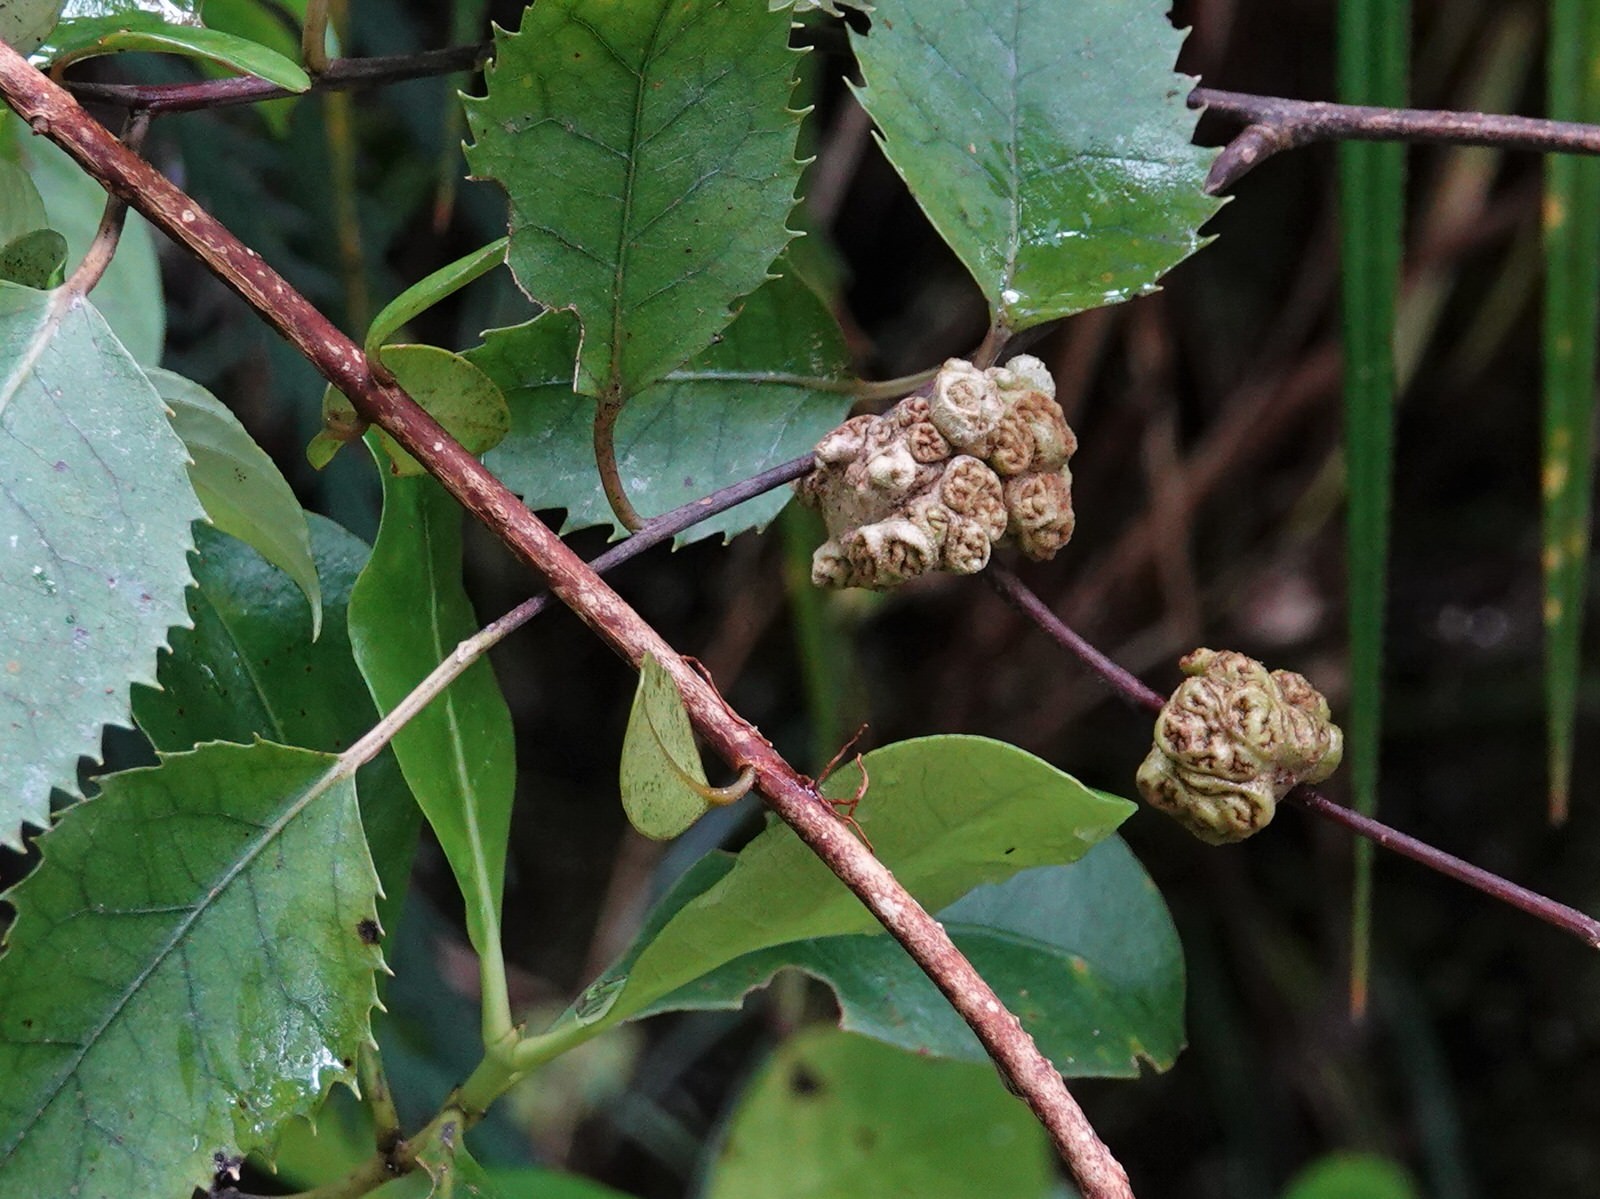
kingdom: Animalia
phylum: Arthropoda
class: Arachnida
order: Trombidiformes
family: Eriophyidae
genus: Eriophyes
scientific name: Eriophyes hoheriae
